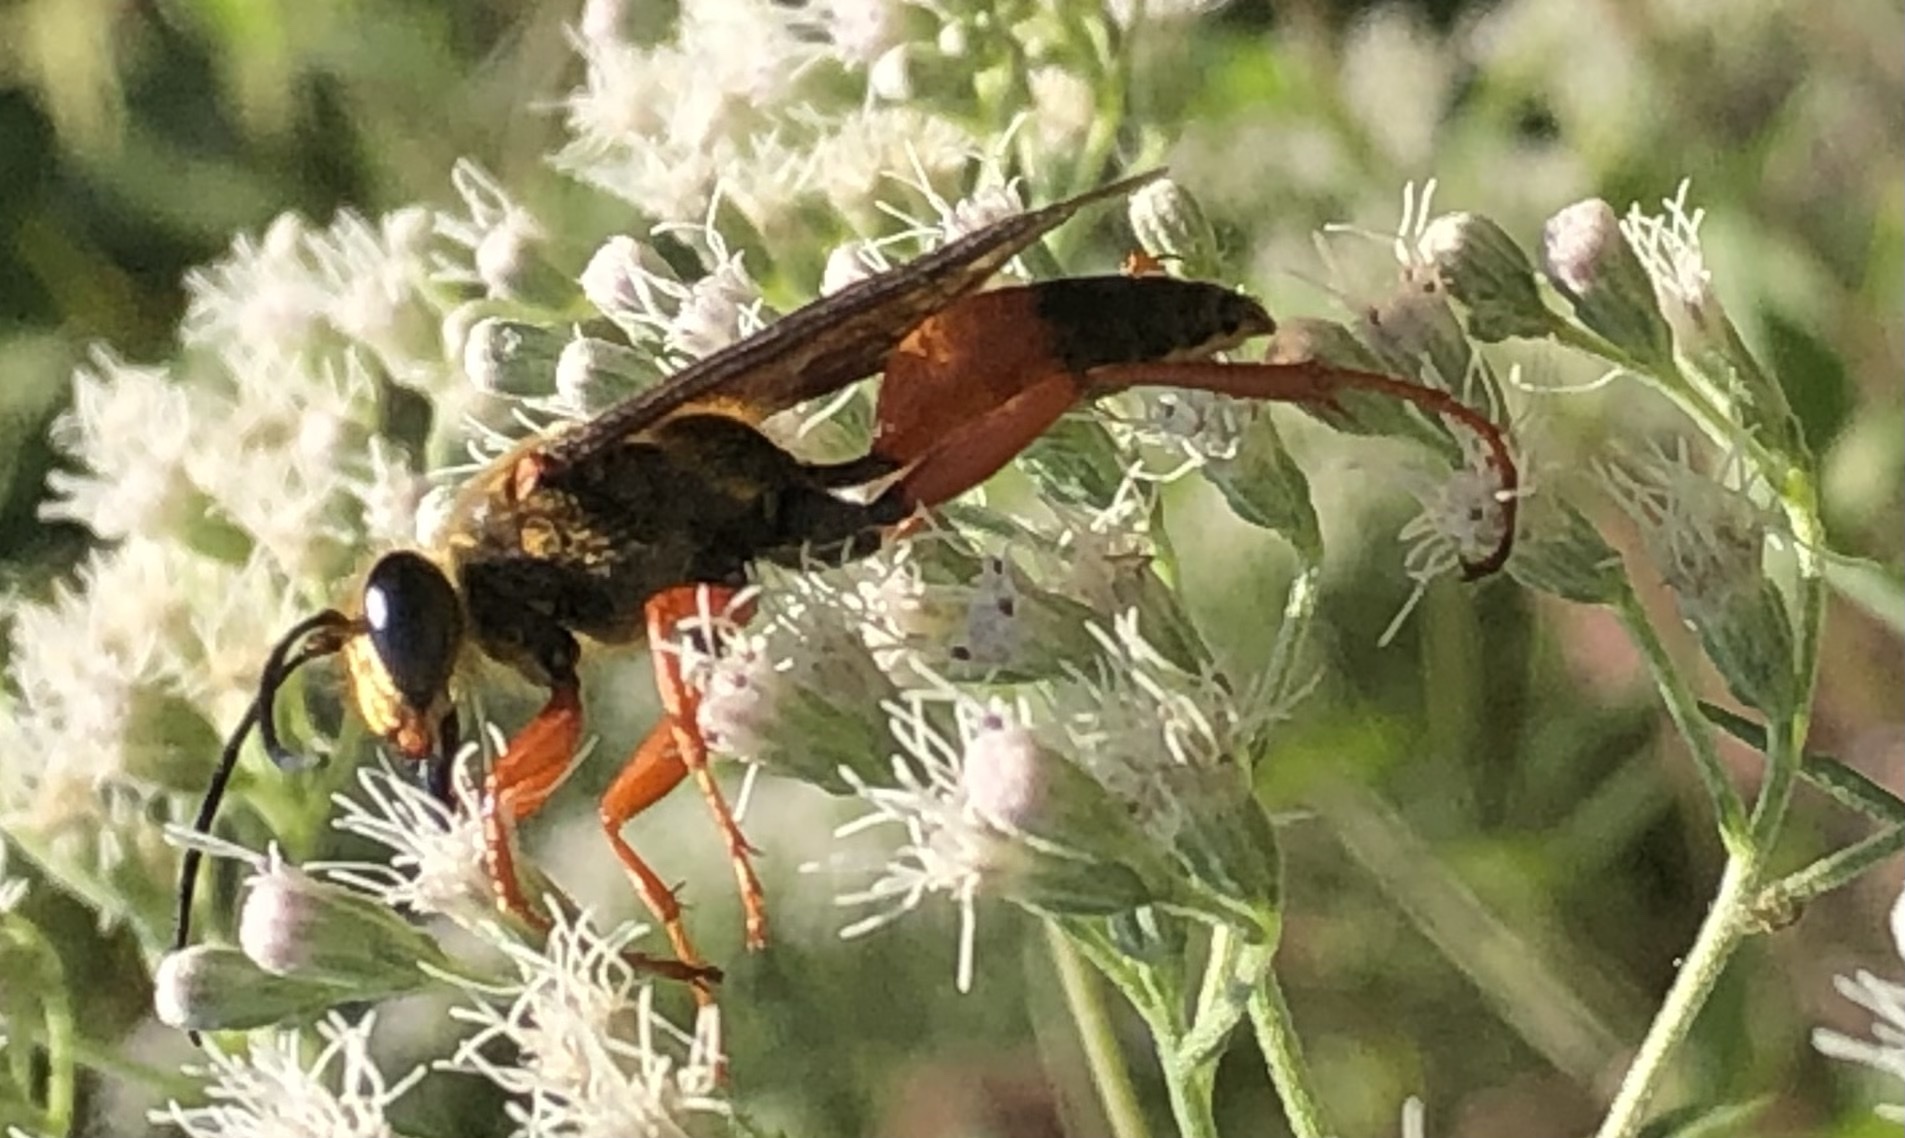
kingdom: Animalia
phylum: Arthropoda
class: Insecta
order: Hymenoptera
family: Sphecidae
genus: Sphex
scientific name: Sphex ichneumoneus
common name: Great golden digger wasp
